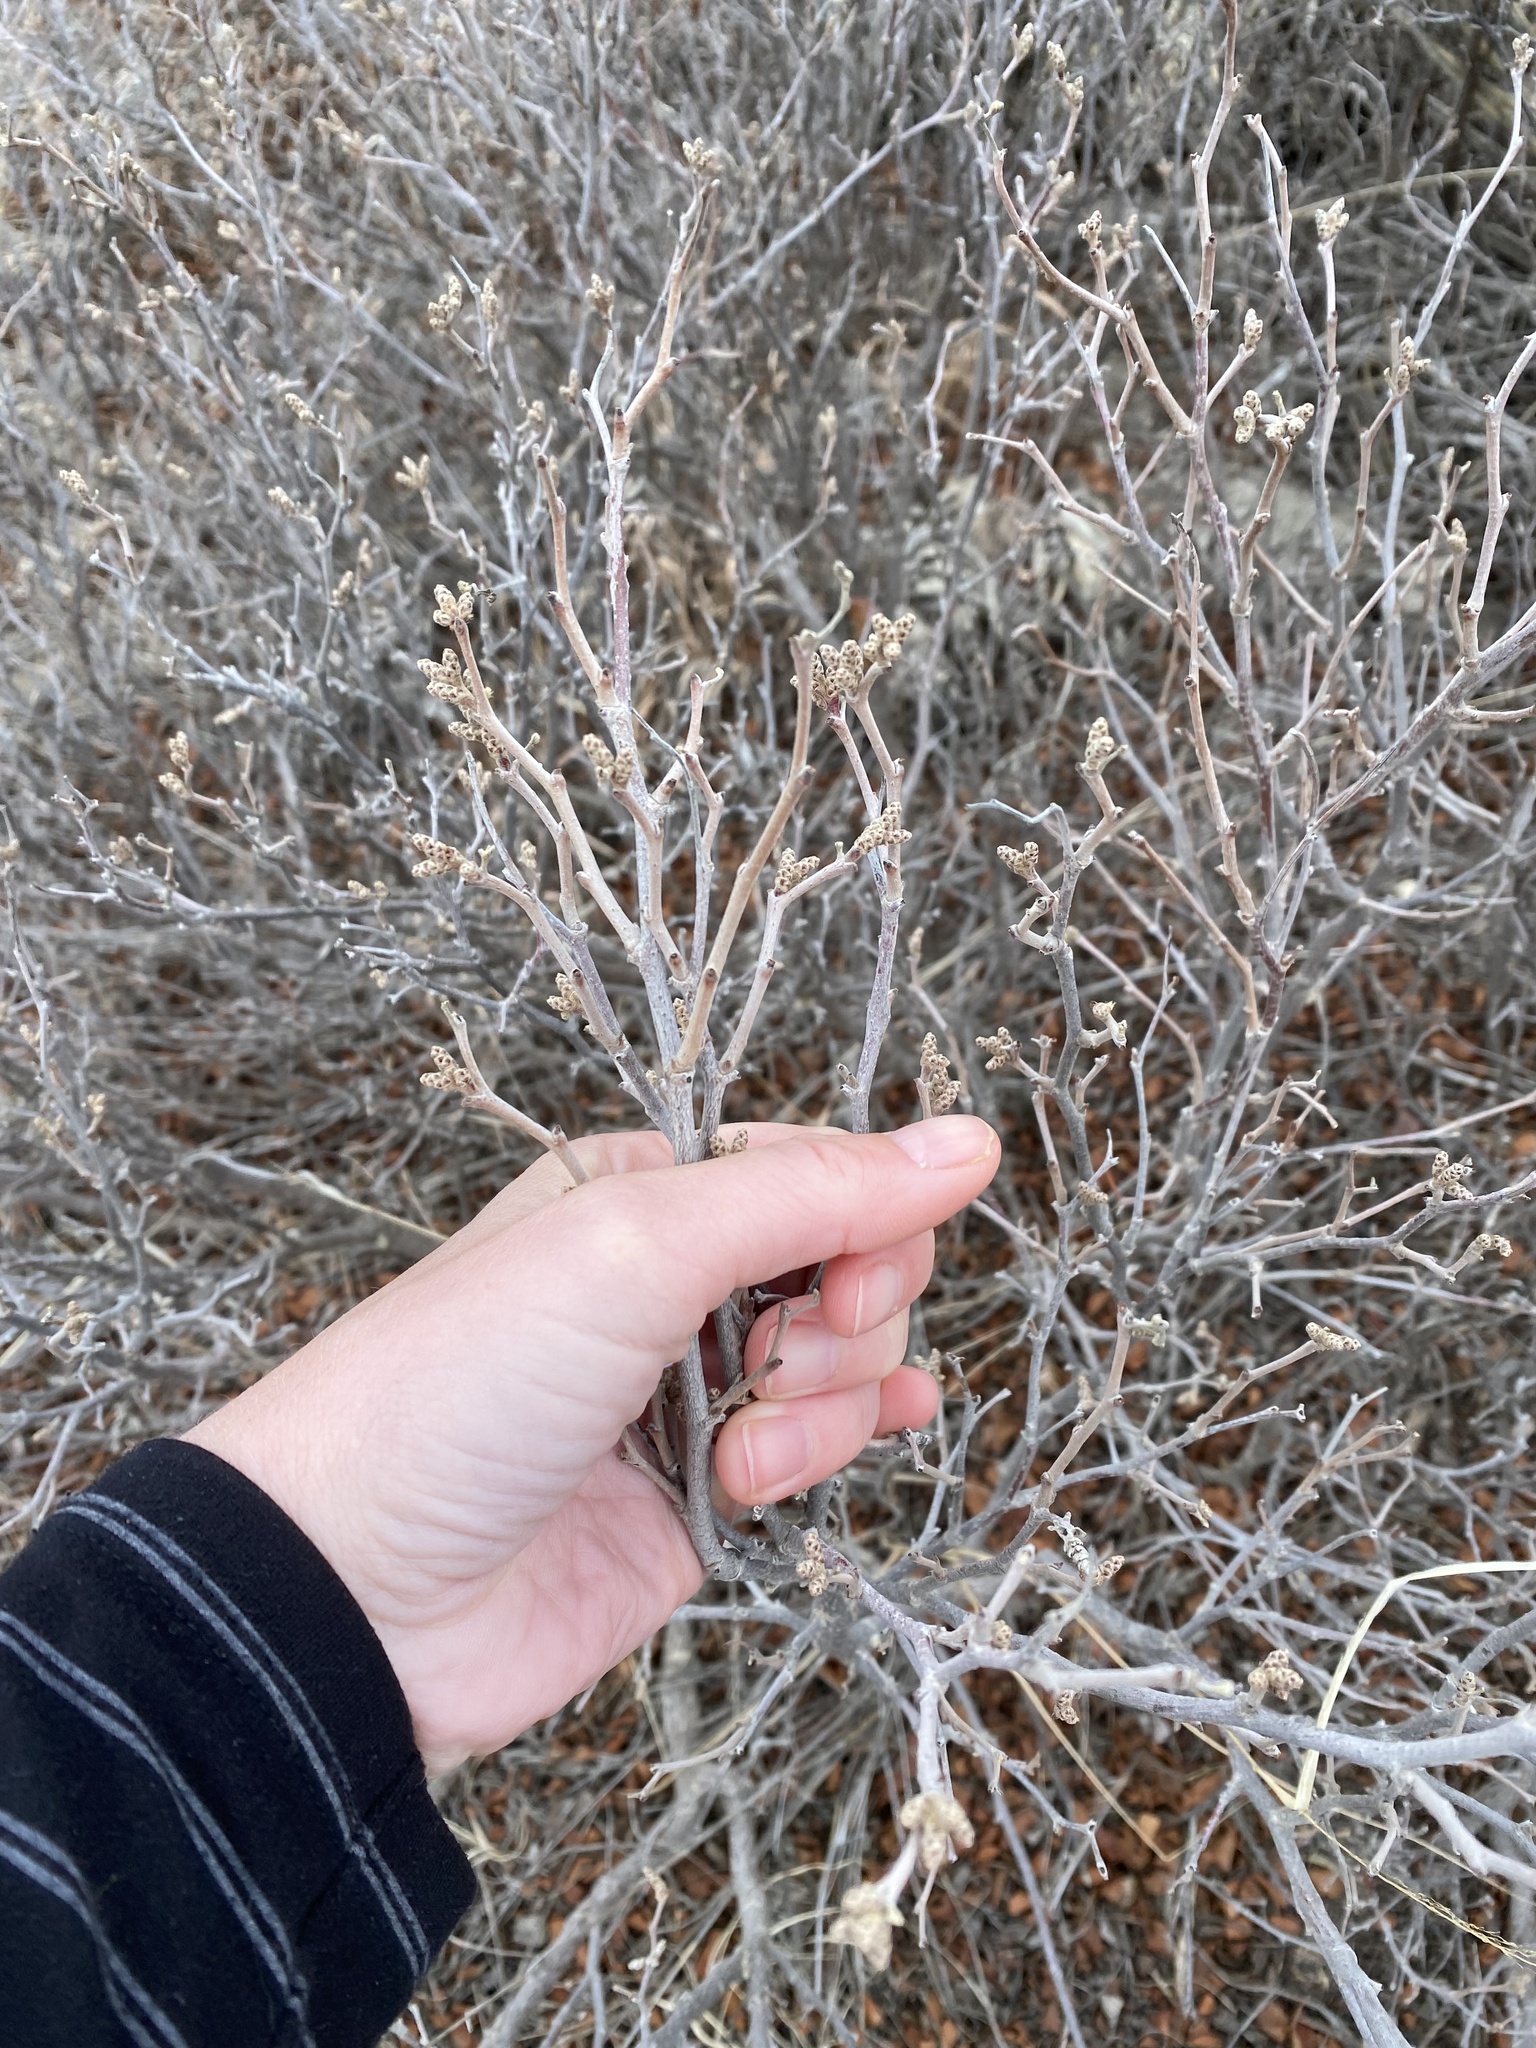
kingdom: Plantae
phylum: Tracheophyta
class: Magnoliopsida
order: Sapindales
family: Anacardiaceae
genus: Rhus
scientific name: Rhus aromatica
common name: Aromatic sumac
